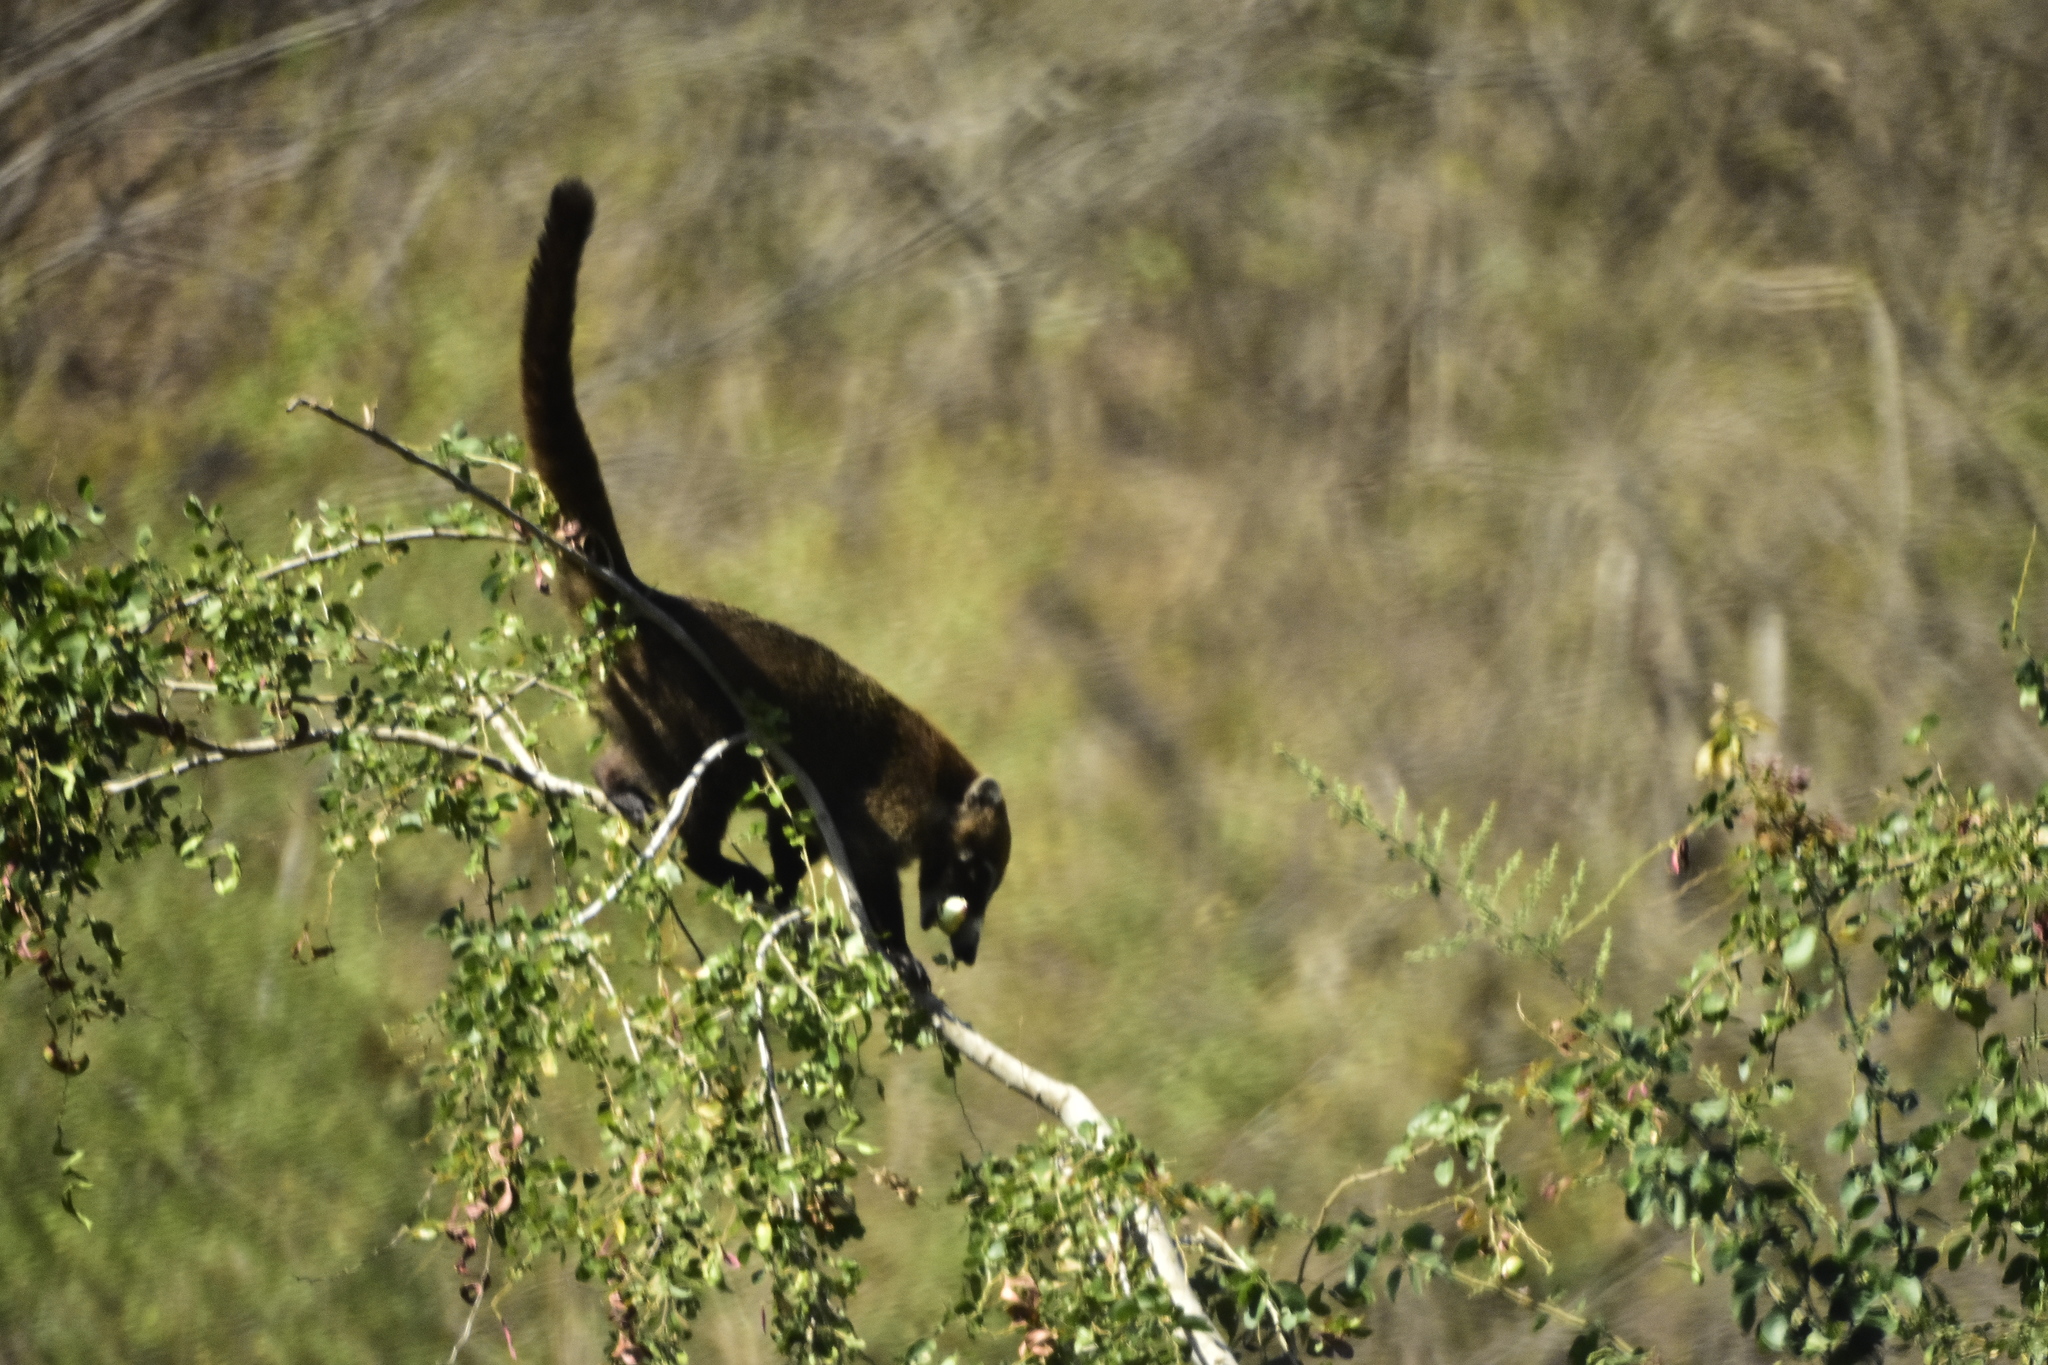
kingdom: Animalia
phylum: Chordata
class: Mammalia
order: Carnivora
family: Procyonidae
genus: Nasua
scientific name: Nasua narica
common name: White-nosed coati
